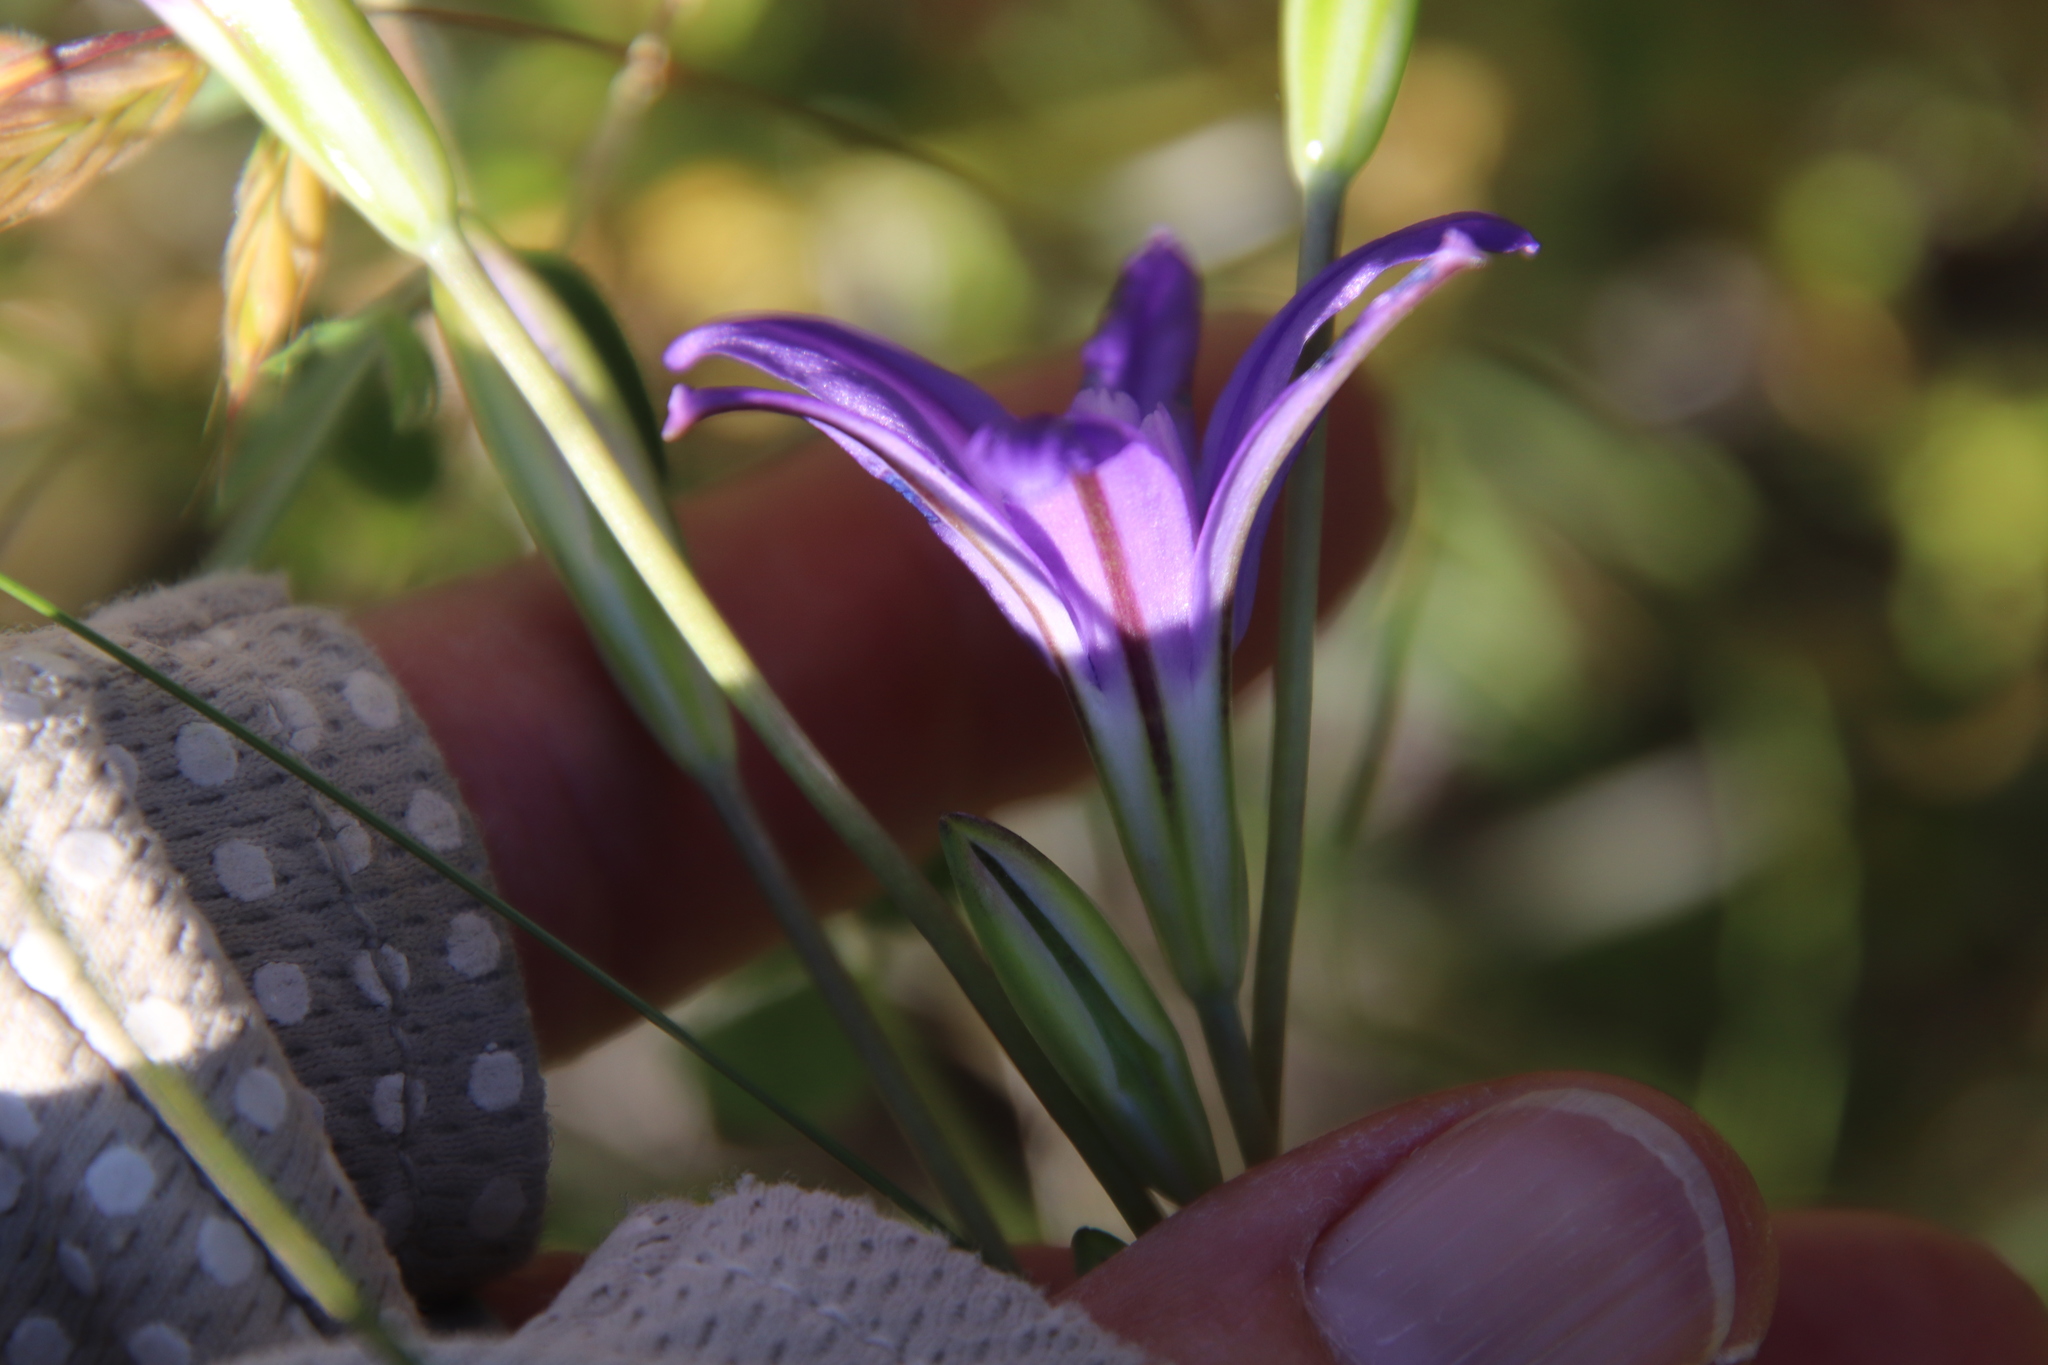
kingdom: Plantae
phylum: Tracheophyta
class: Liliopsida
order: Asparagales
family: Asparagaceae
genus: Brodiaea
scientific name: Brodiaea terrestris
